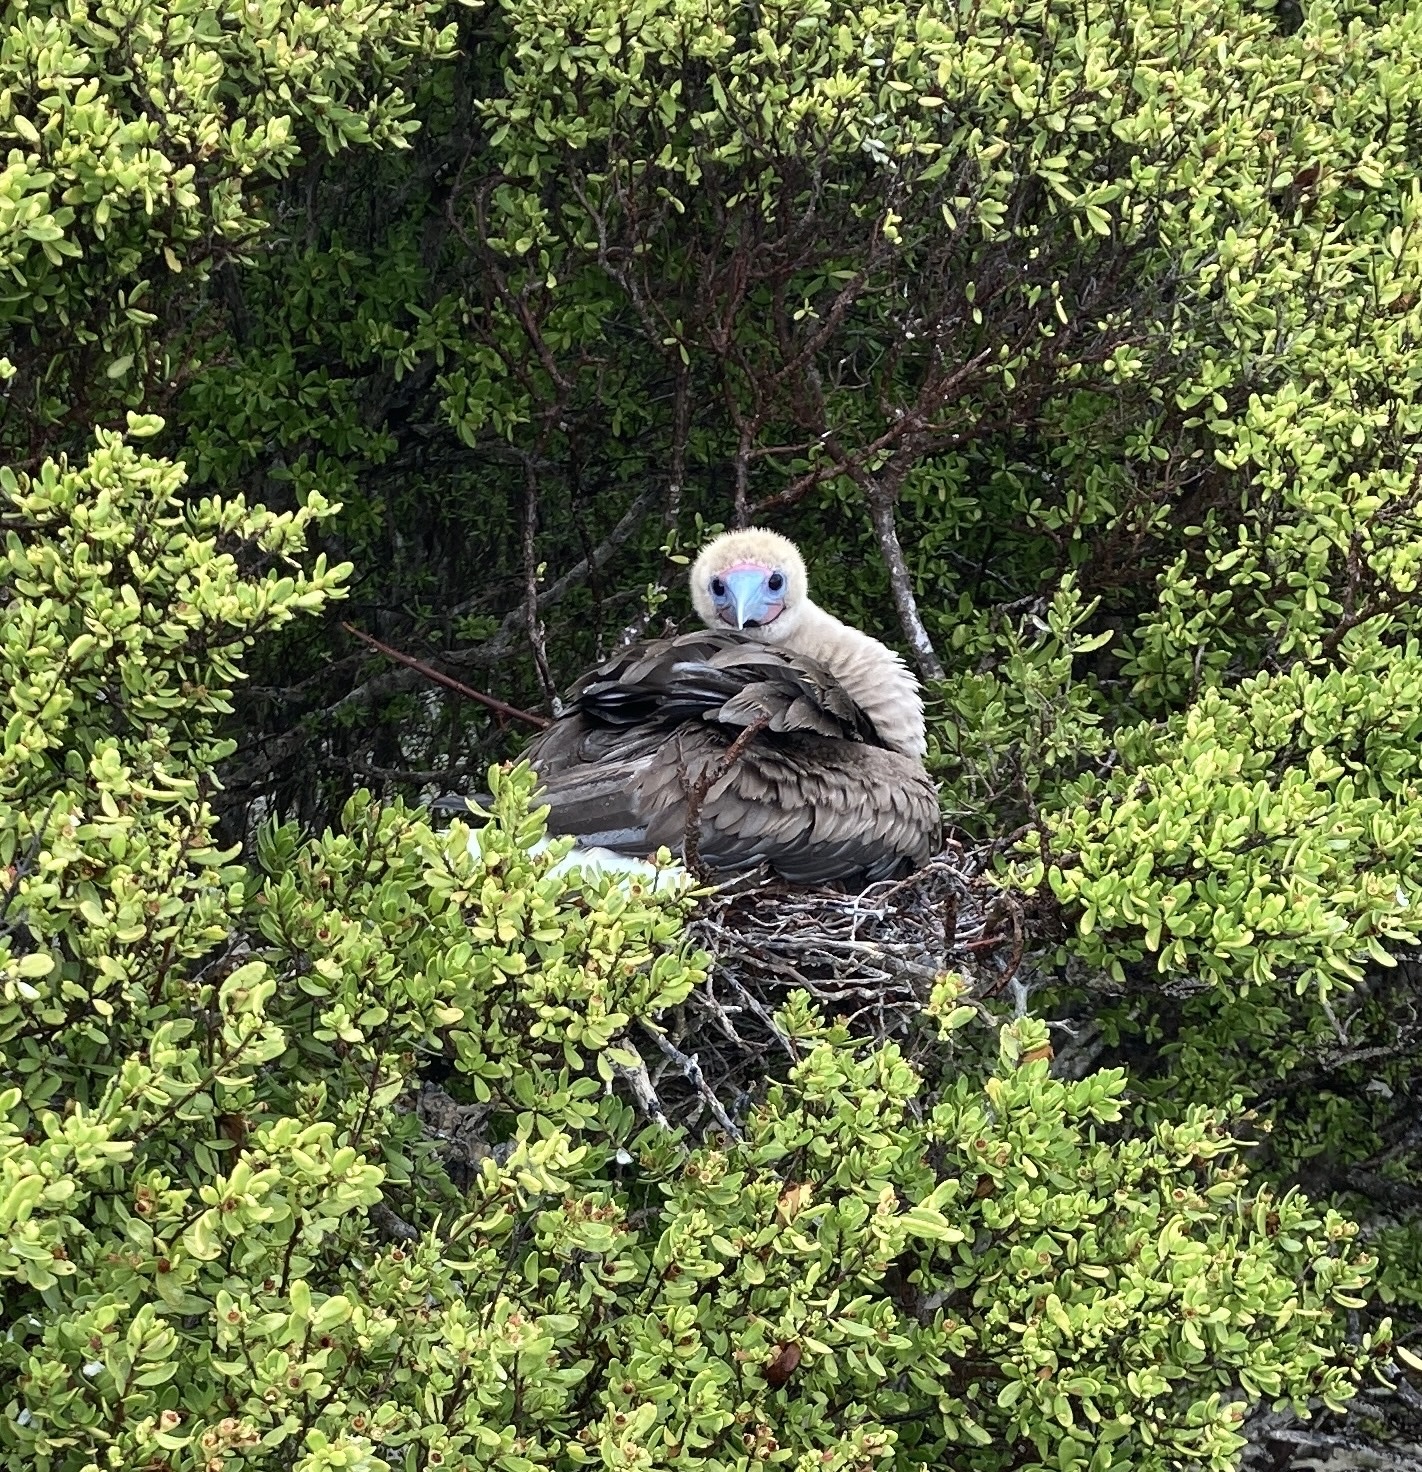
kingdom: Animalia
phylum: Chordata
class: Aves
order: Suliformes
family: Sulidae
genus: Sula
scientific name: Sula sula
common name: Red-footed booby
